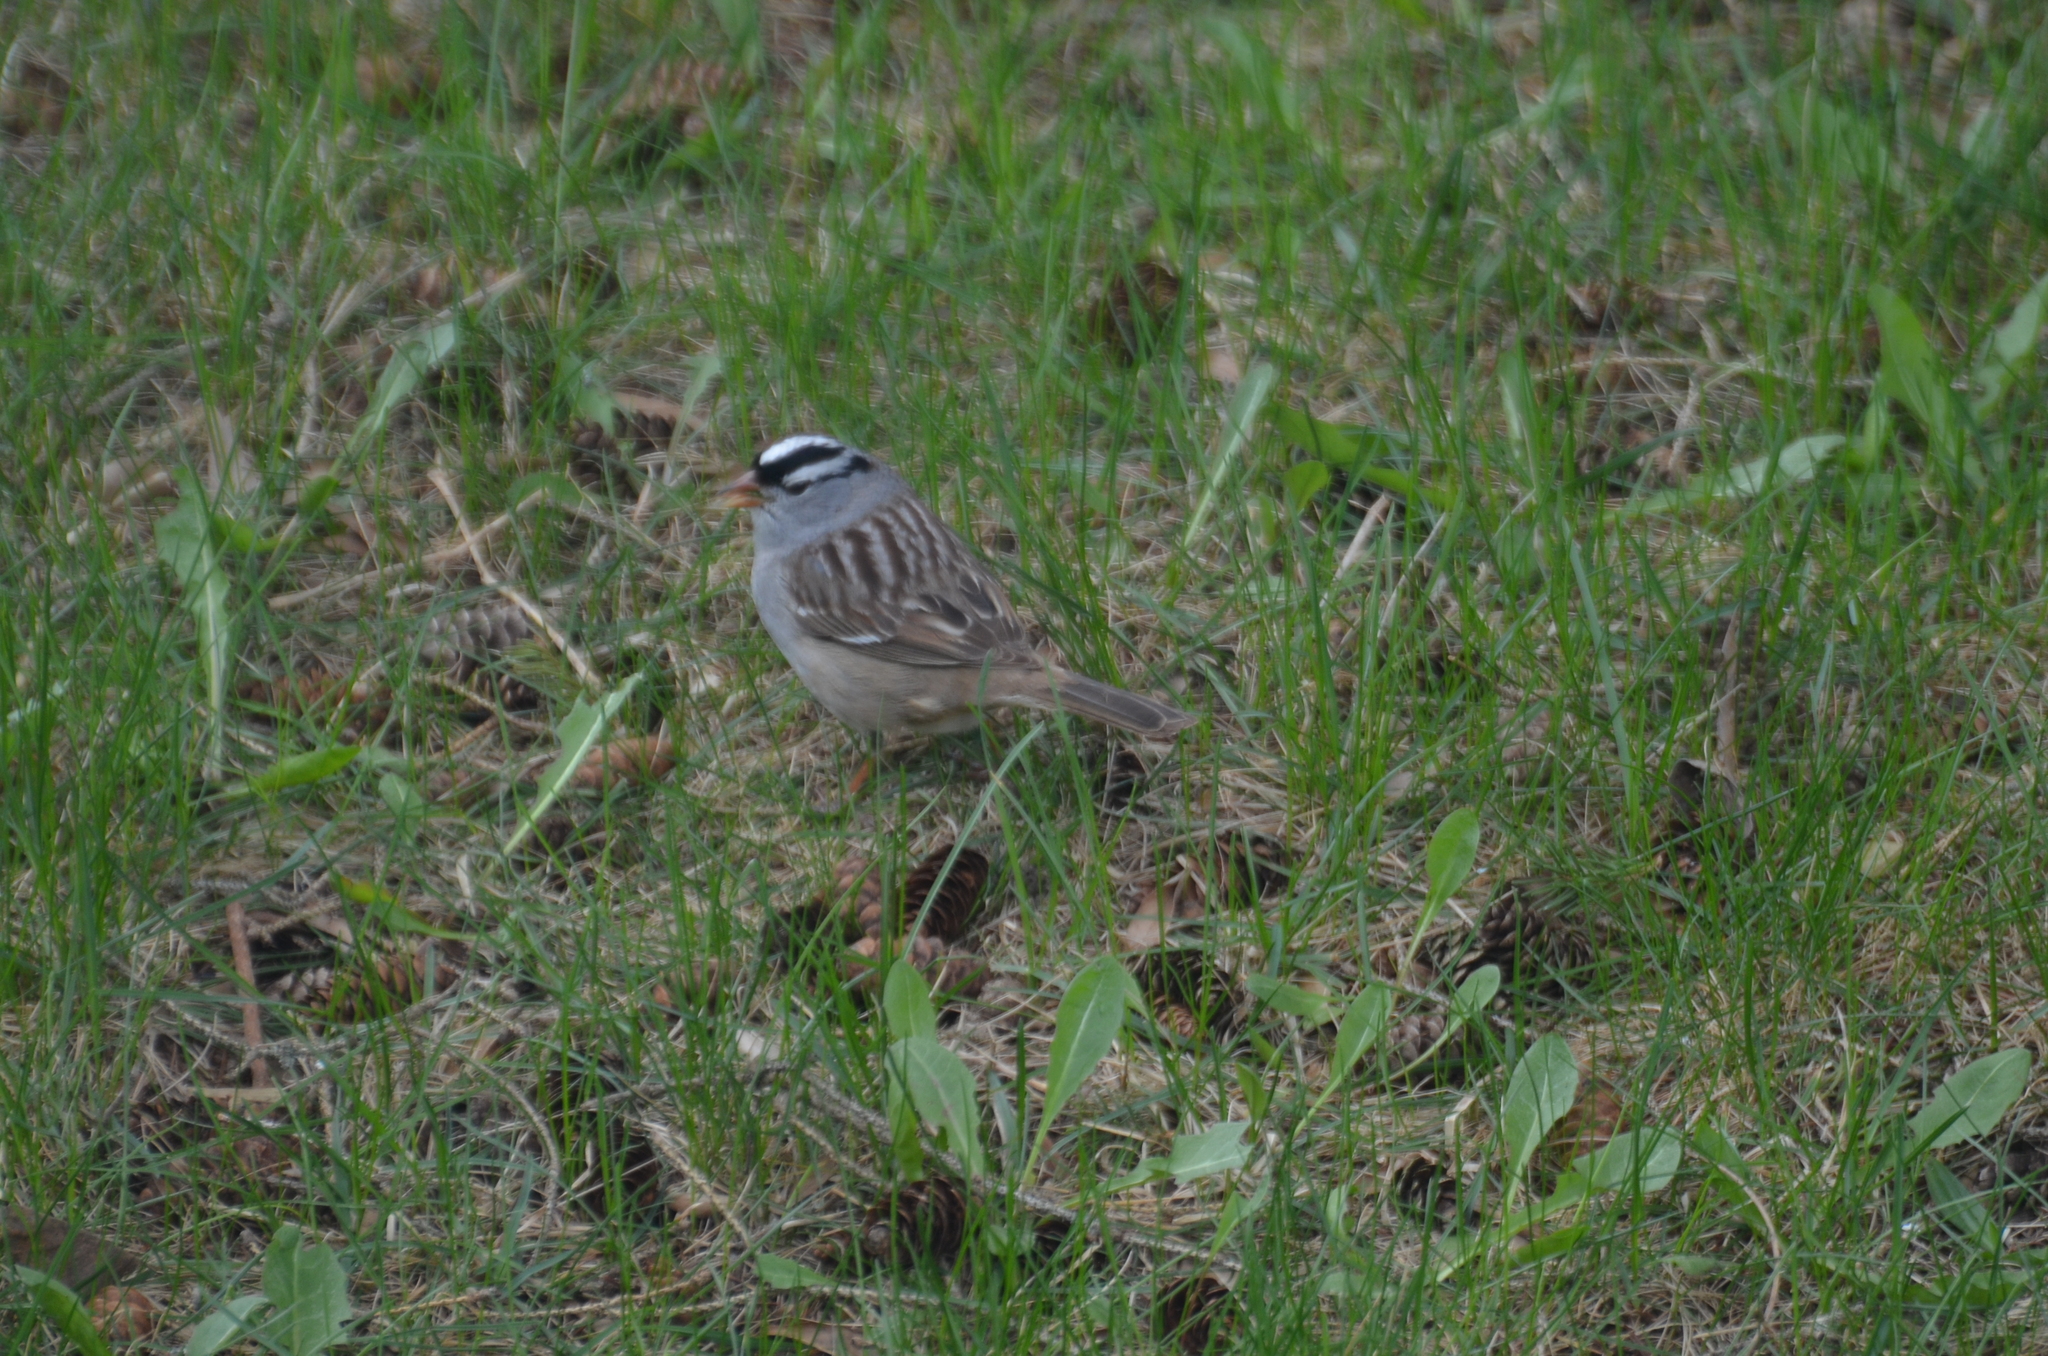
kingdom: Animalia
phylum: Chordata
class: Aves
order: Passeriformes
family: Passerellidae
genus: Zonotrichia
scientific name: Zonotrichia leucophrys
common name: White-crowned sparrow
